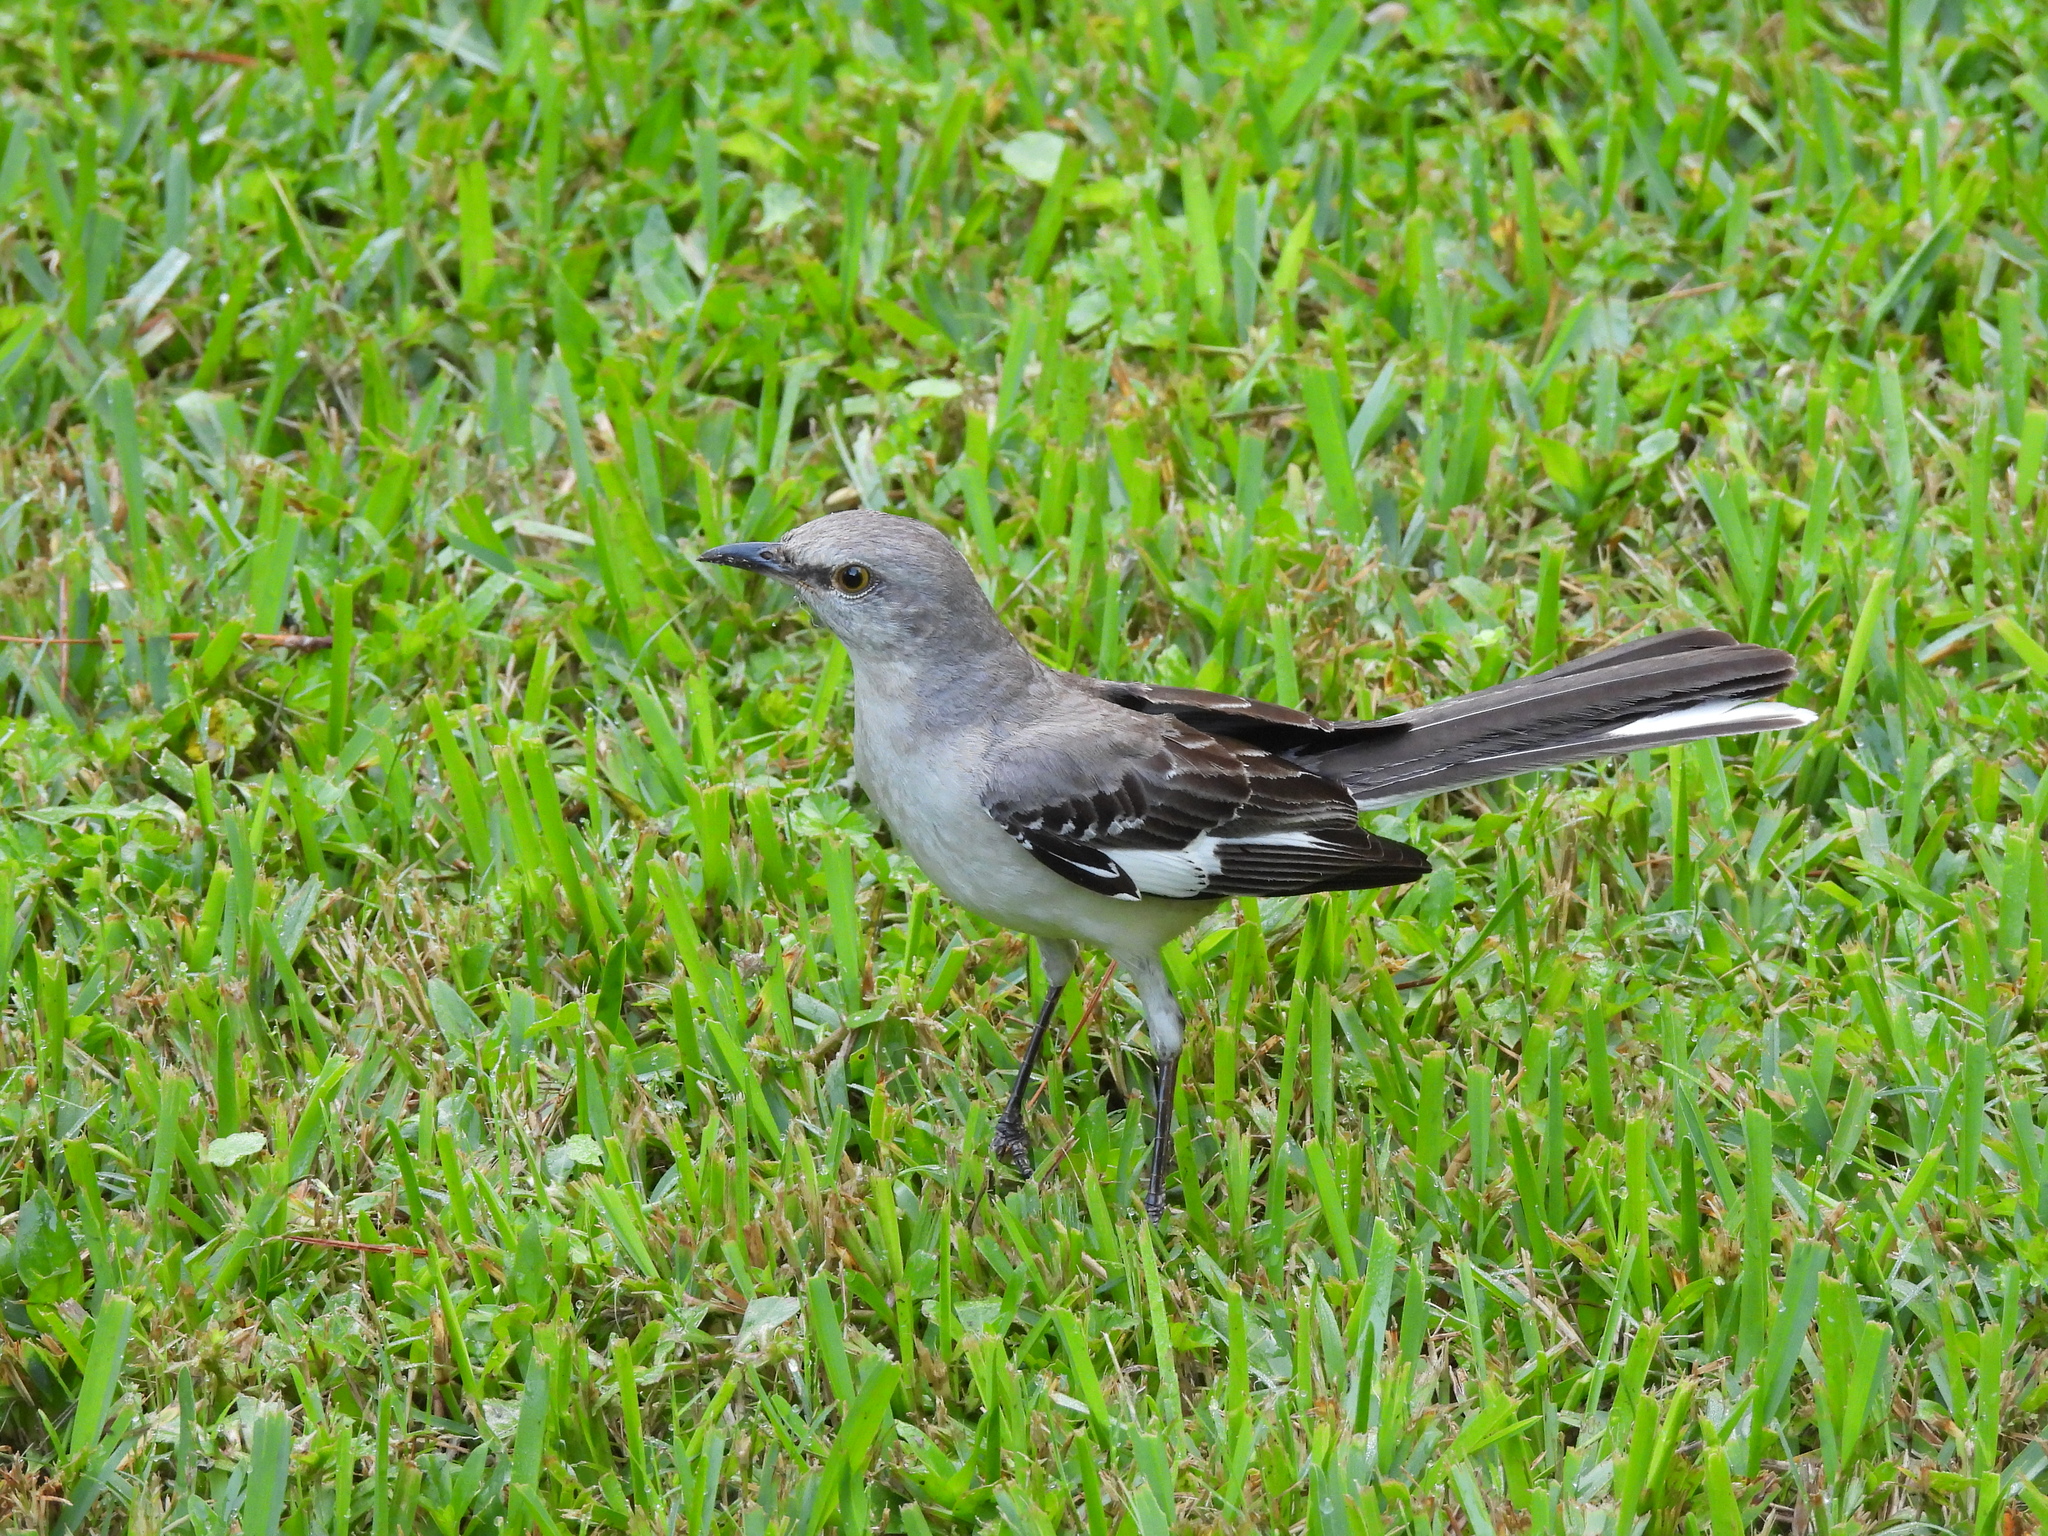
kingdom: Animalia
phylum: Chordata
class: Aves
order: Passeriformes
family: Mimidae
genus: Mimus
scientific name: Mimus polyglottos
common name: Northern mockingbird
